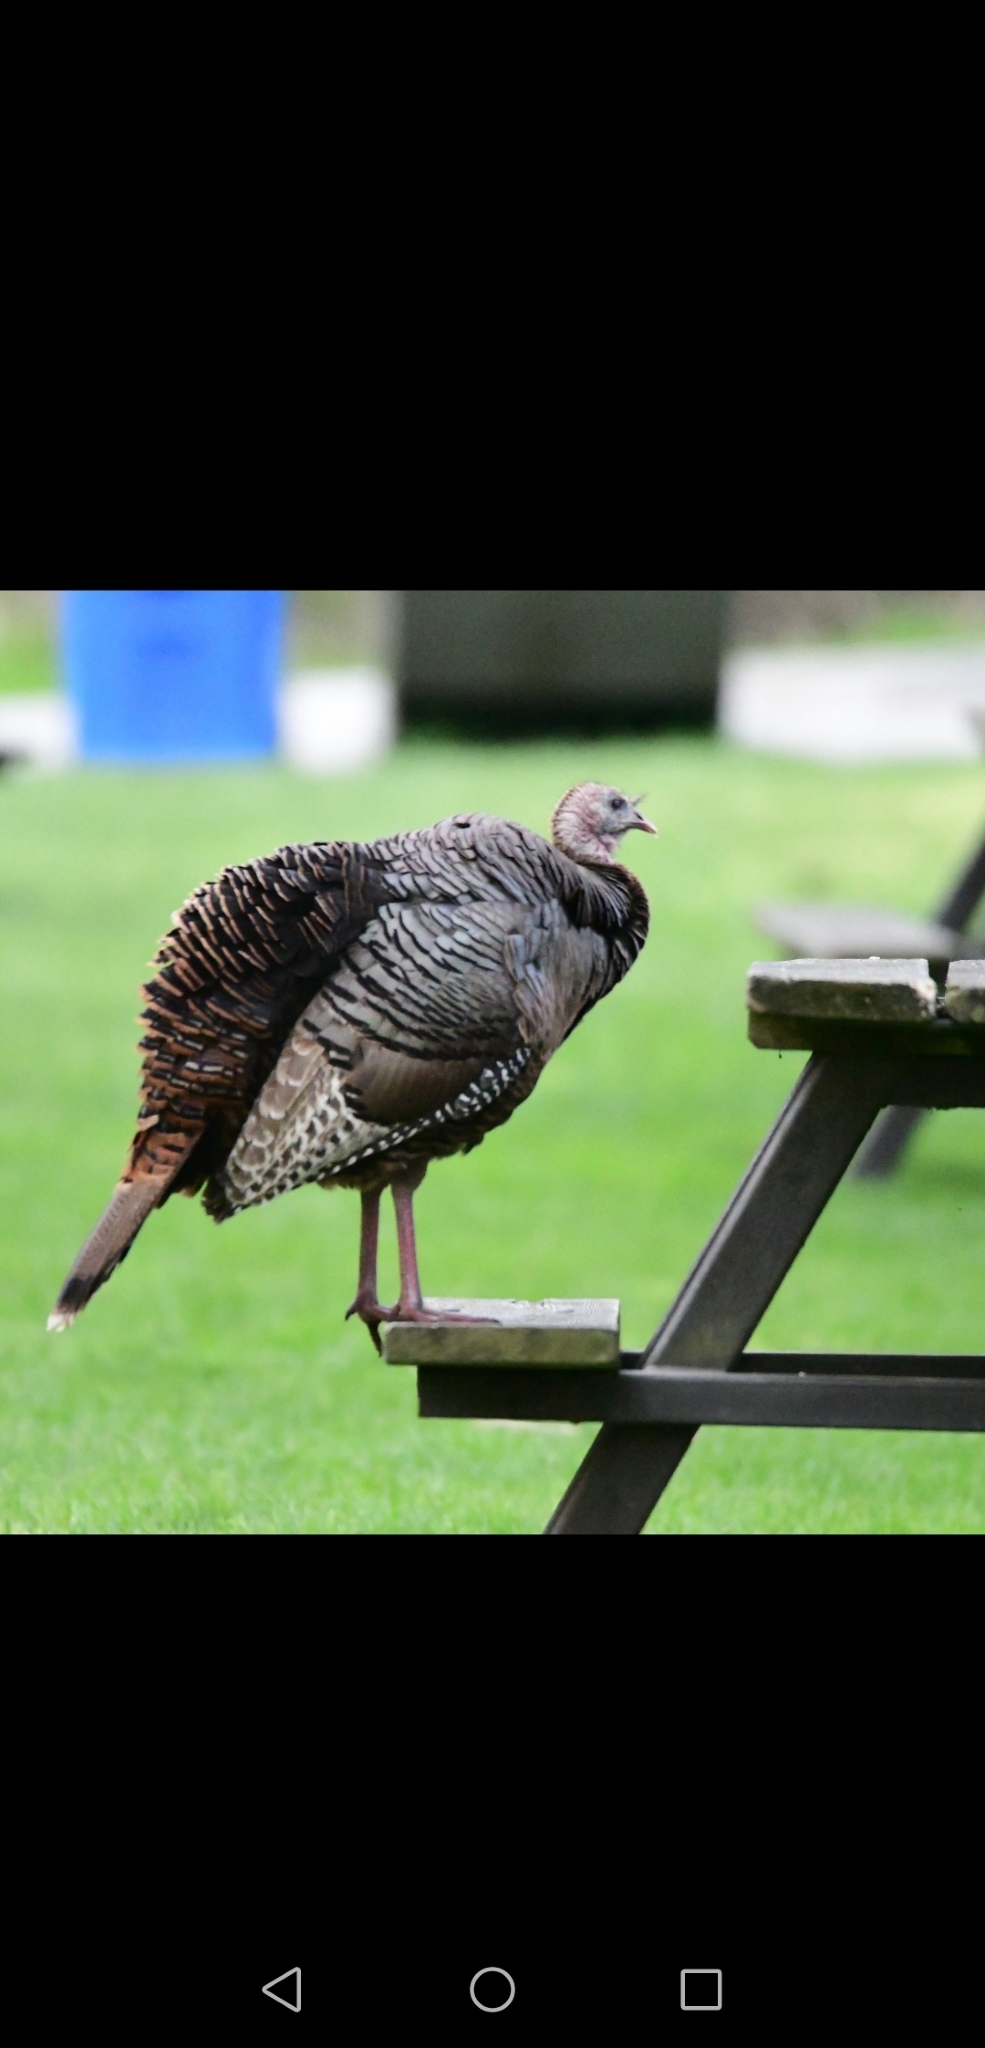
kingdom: Animalia
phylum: Chordata
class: Aves
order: Galliformes
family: Phasianidae
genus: Meleagris
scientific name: Meleagris gallopavo
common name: Wild turkey
